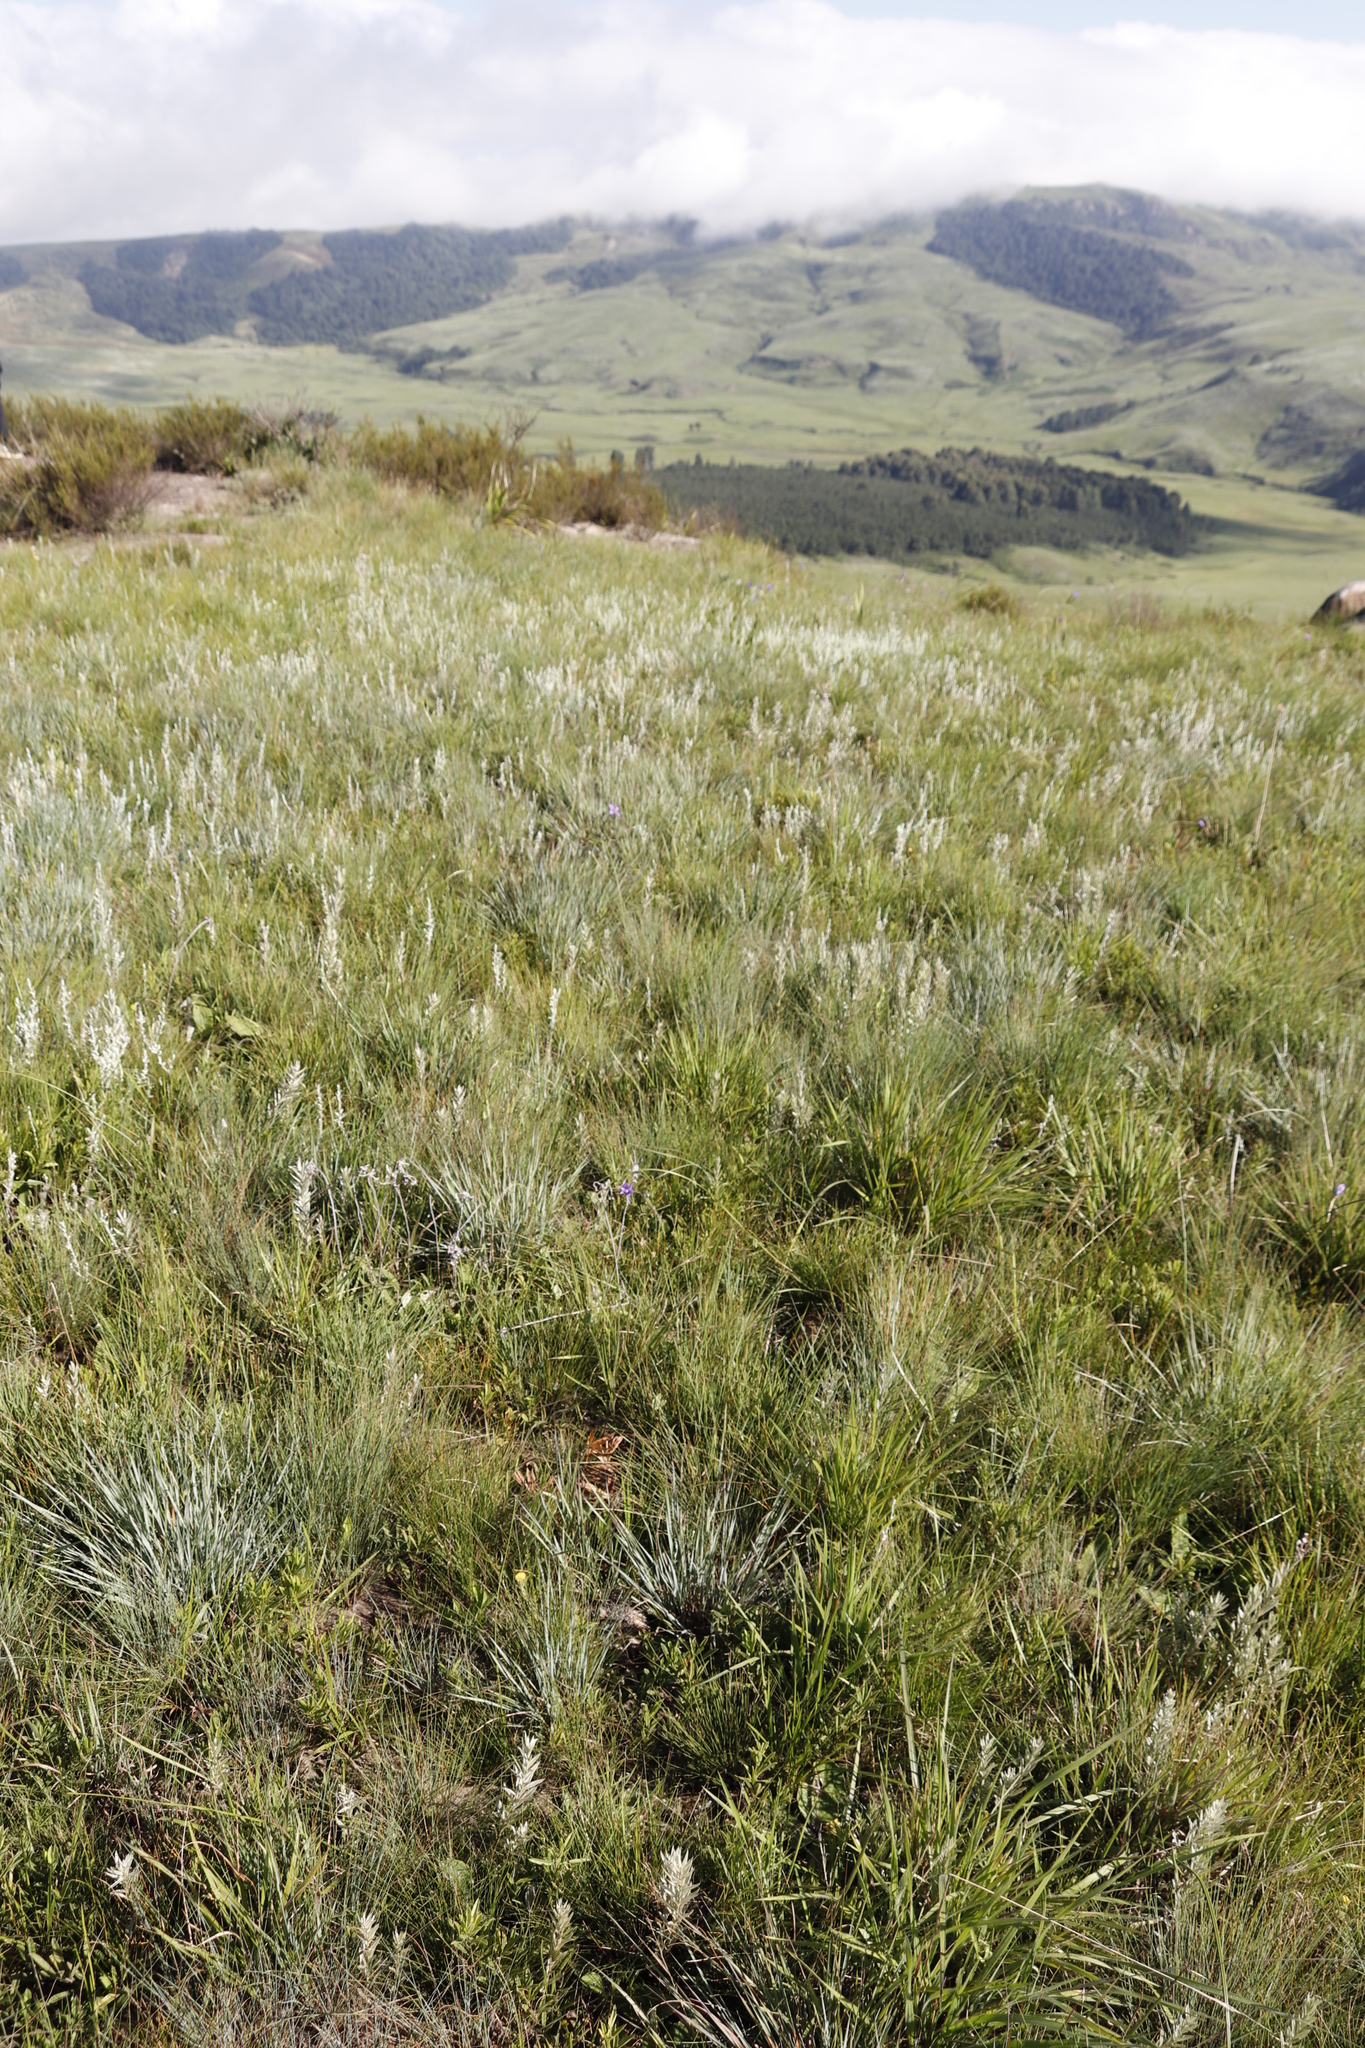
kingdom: Plantae
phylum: Tracheophyta
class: Liliopsida
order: Asparagales
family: Iridaceae
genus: Moraea
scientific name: Moraea inclinata
